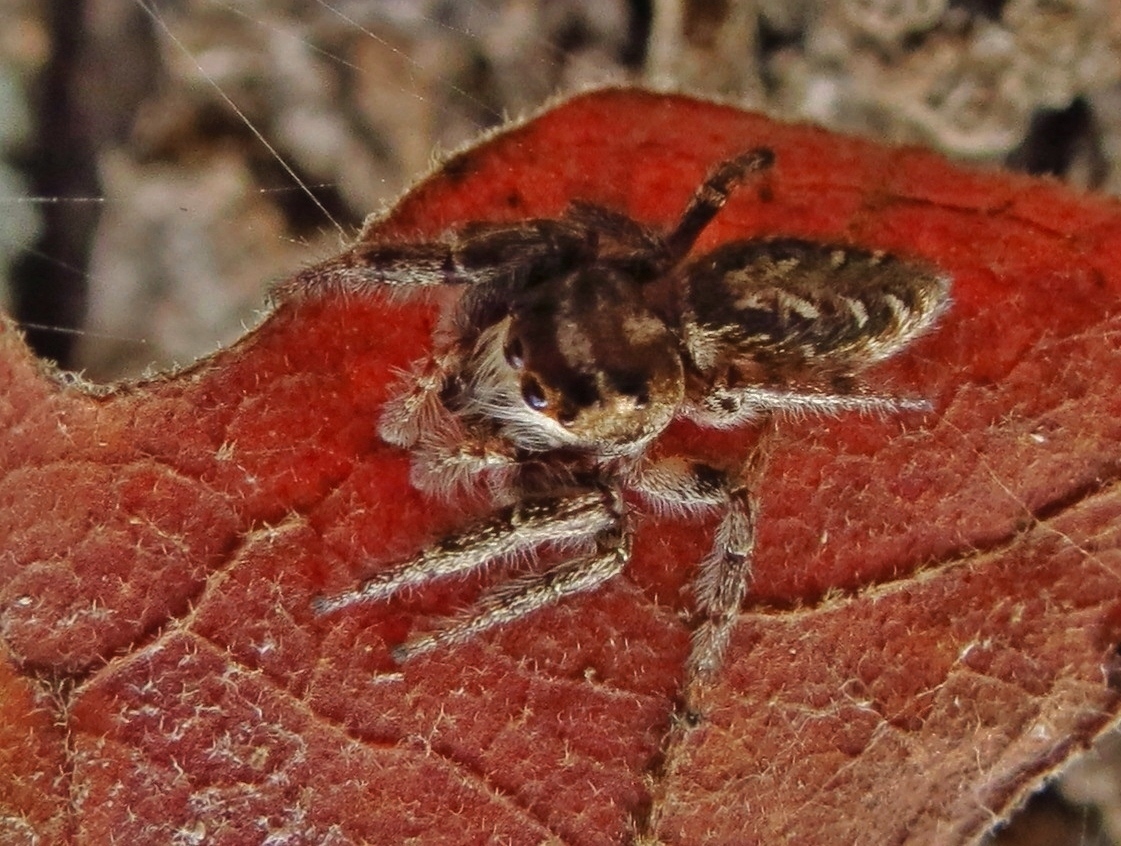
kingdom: Animalia
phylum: Arthropoda
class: Arachnida
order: Araneae
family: Salticidae
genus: Eris
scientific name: Eris militaris
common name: Bronze jumper
